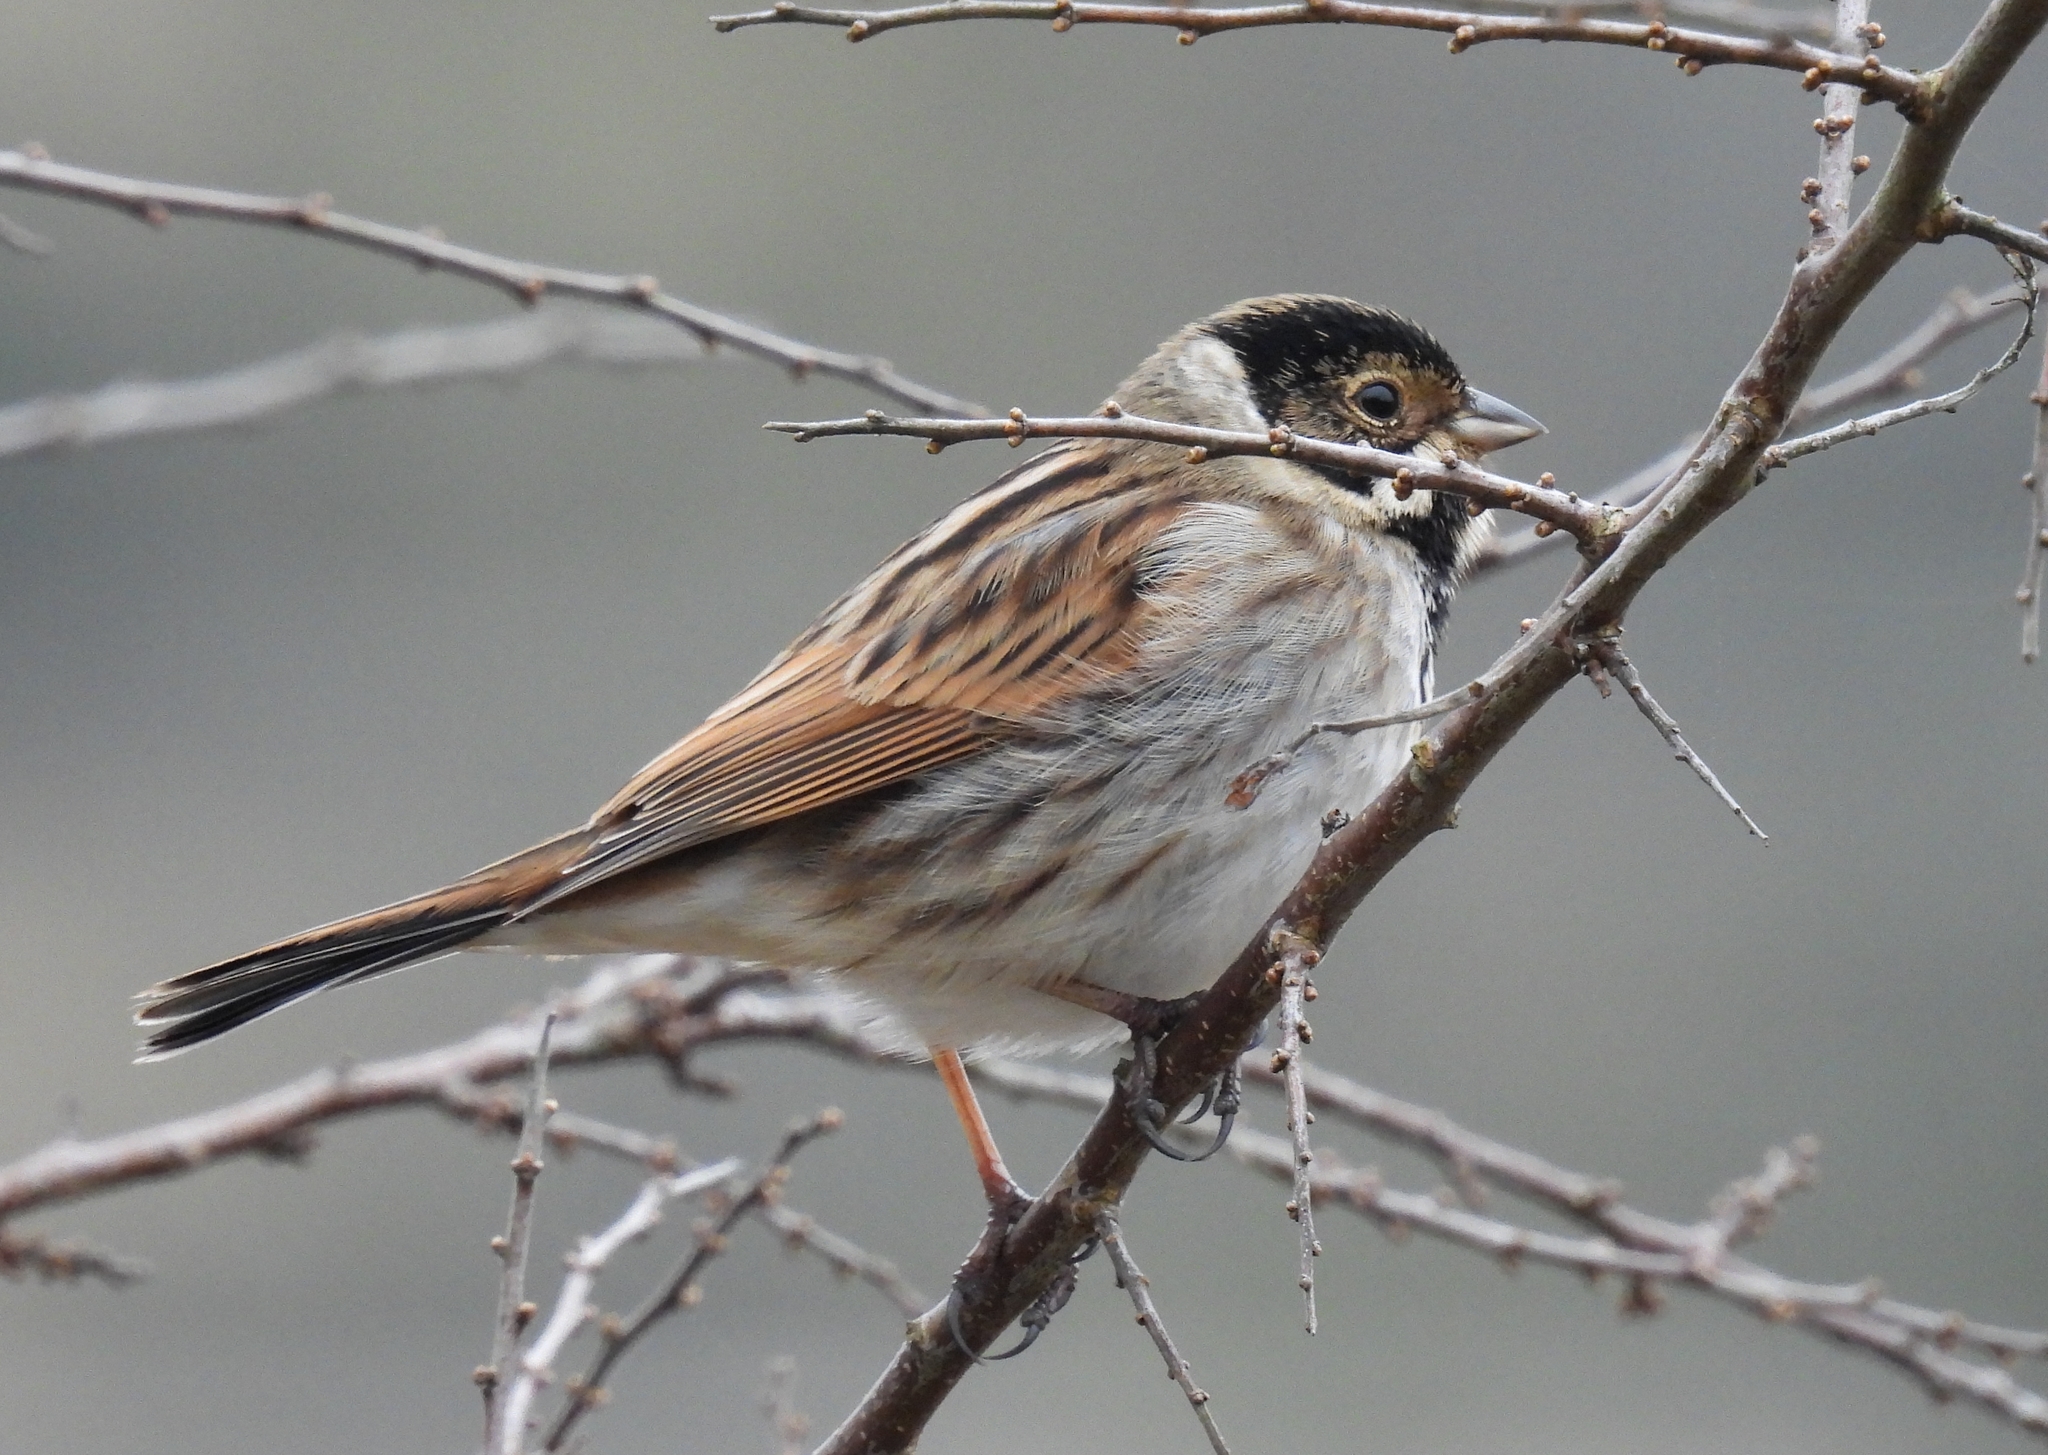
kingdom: Animalia
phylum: Chordata
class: Aves
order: Passeriformes
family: Emberizidae
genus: Emberiza
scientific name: Emberiza schoeniclus
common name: Reed bunting
